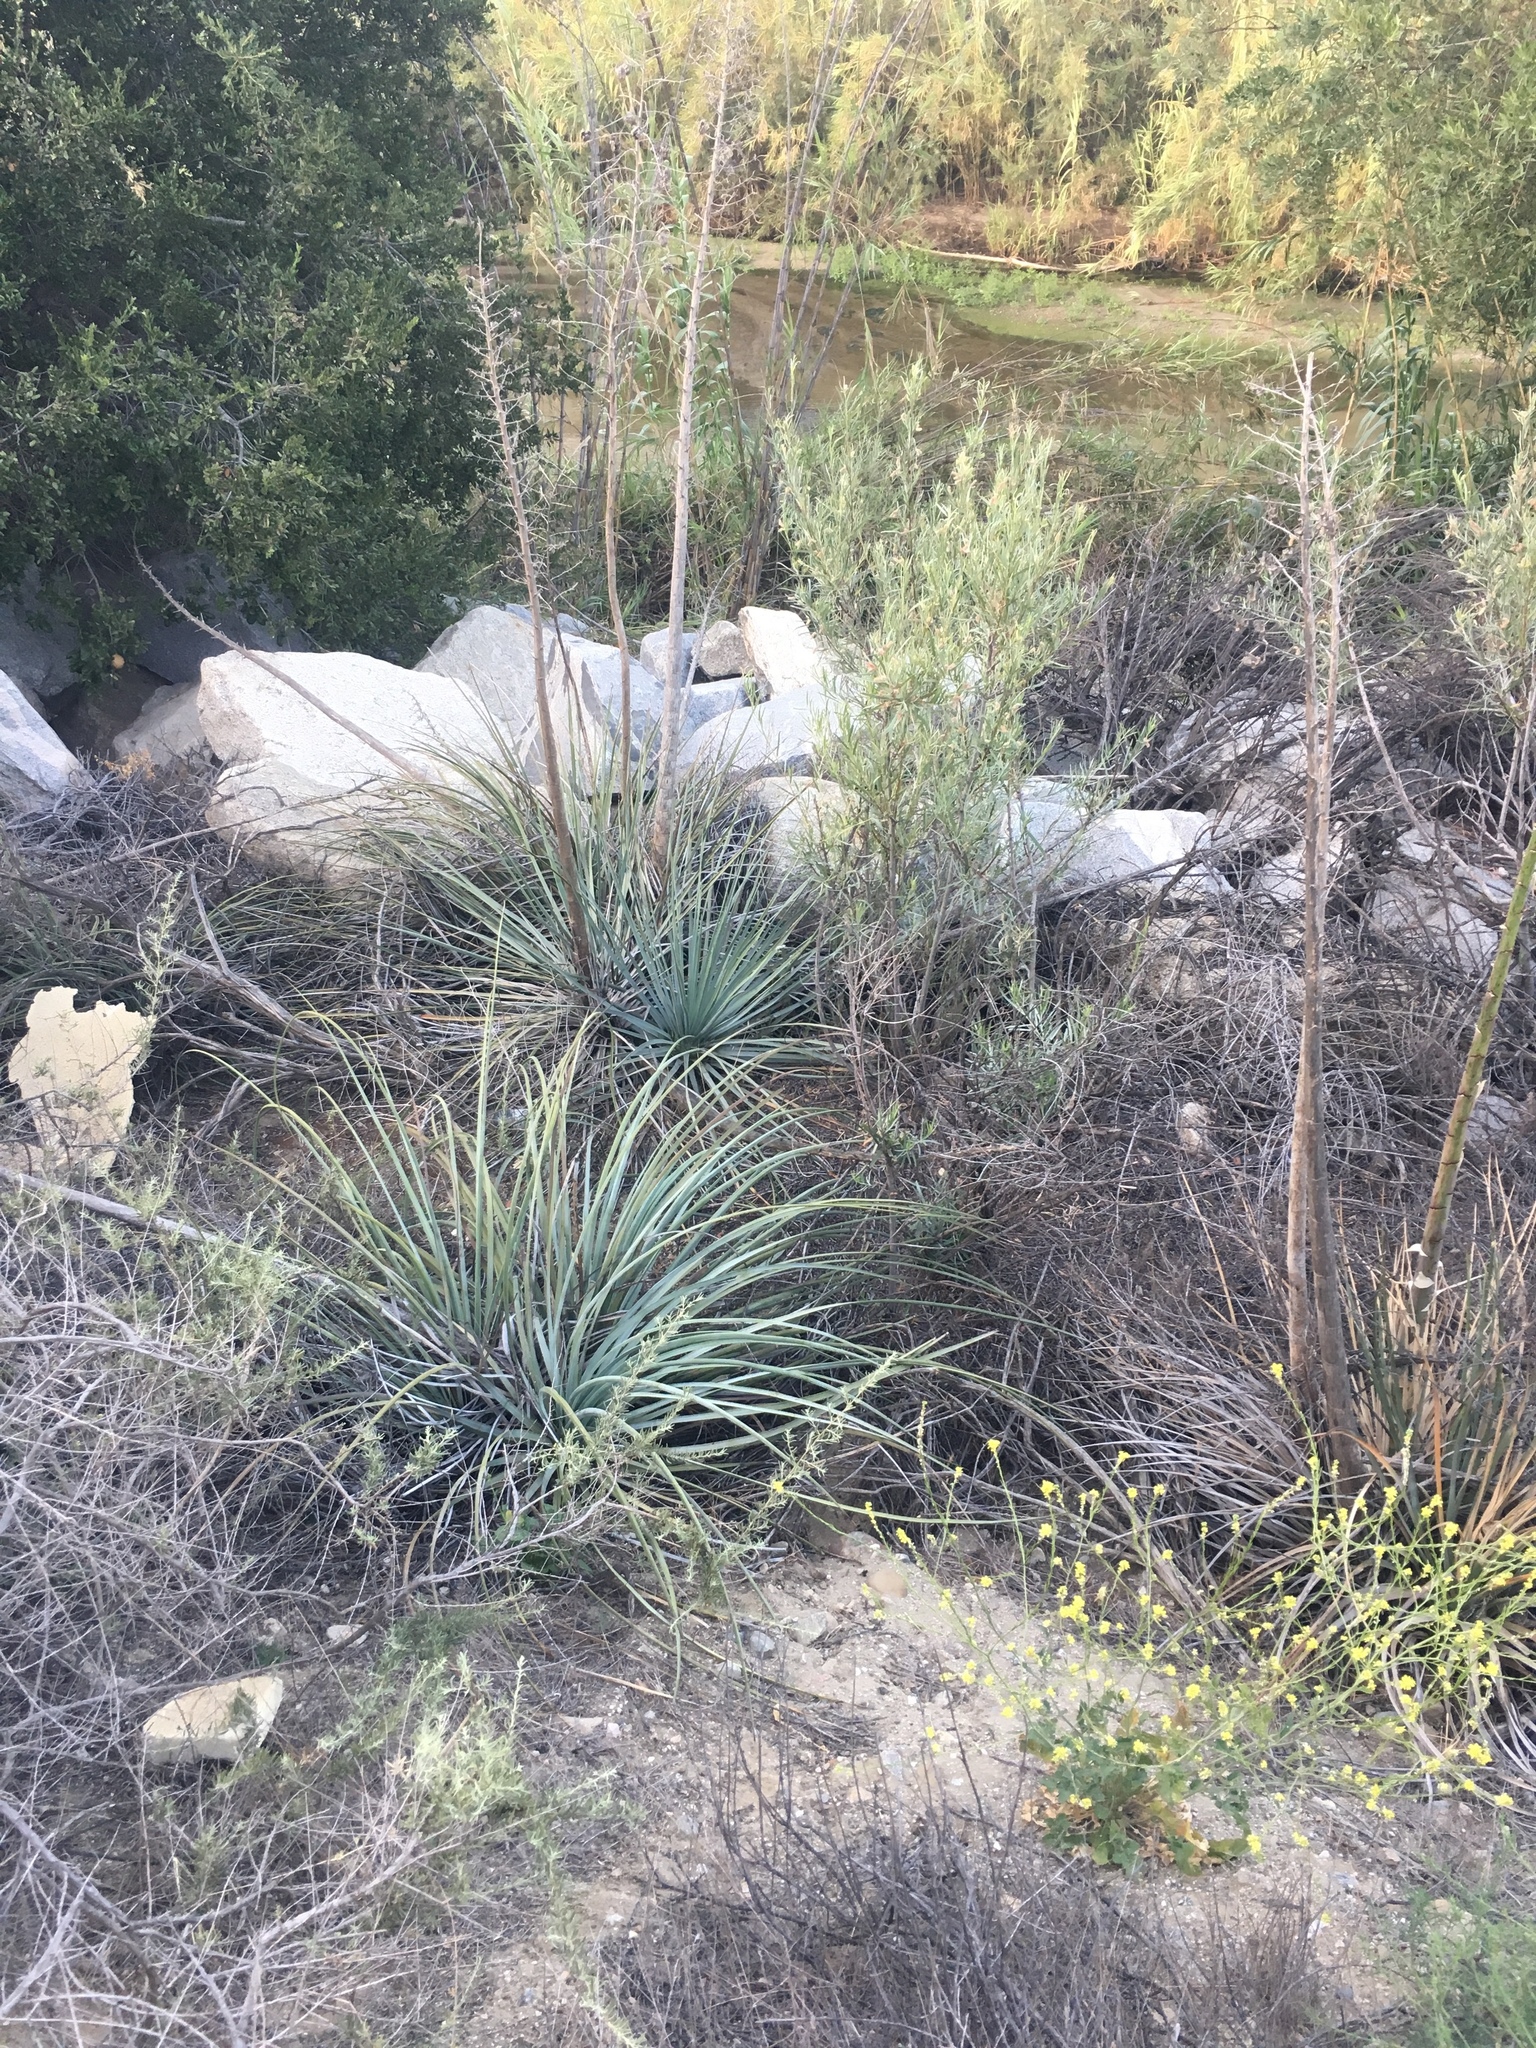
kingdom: Plantae
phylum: Tracheophyta
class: Liliopsida
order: Asparagales
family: Asparagaceae
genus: Hesperoyucca
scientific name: Hesperoyucca whipplei
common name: Our lord's-candle
